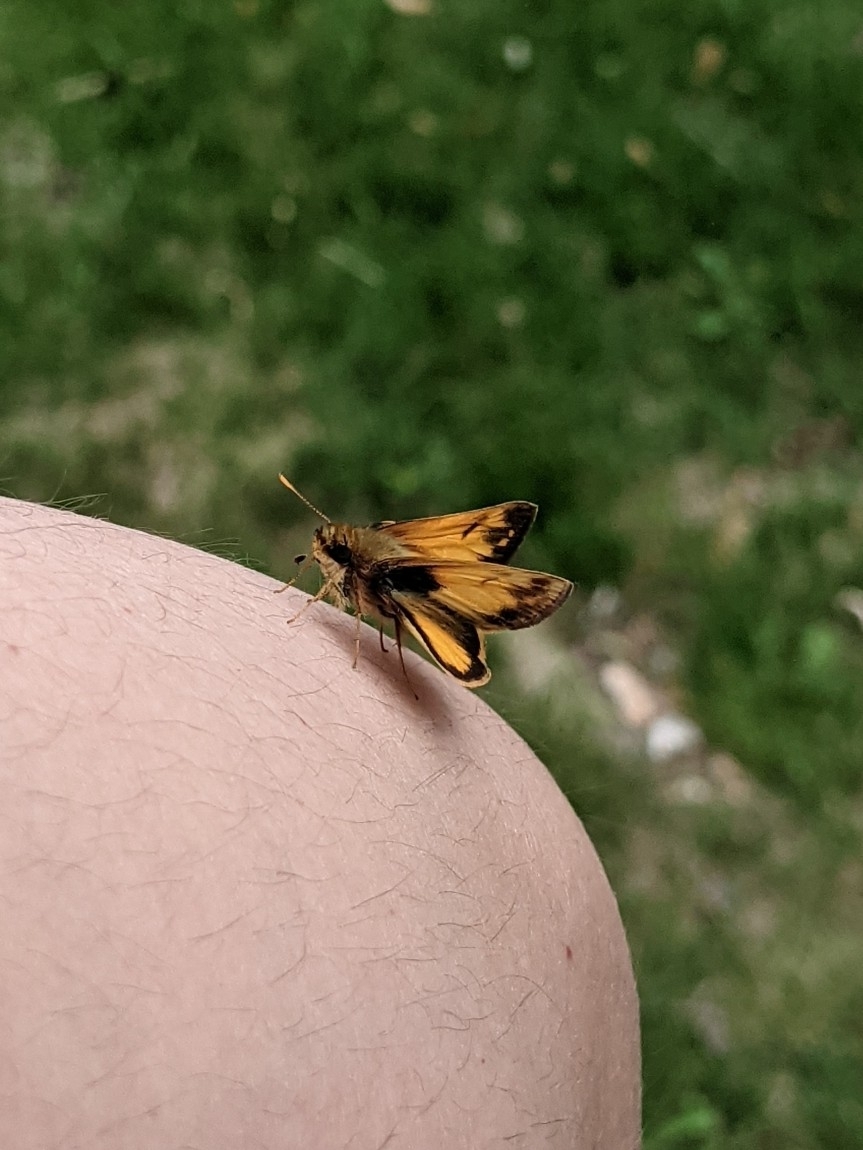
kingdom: Animalia
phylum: Arthropoda
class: Insecta
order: Lepidoptera
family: Hesperiidae
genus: Lon
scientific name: Lon zabulon
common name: Zabulon skipper
